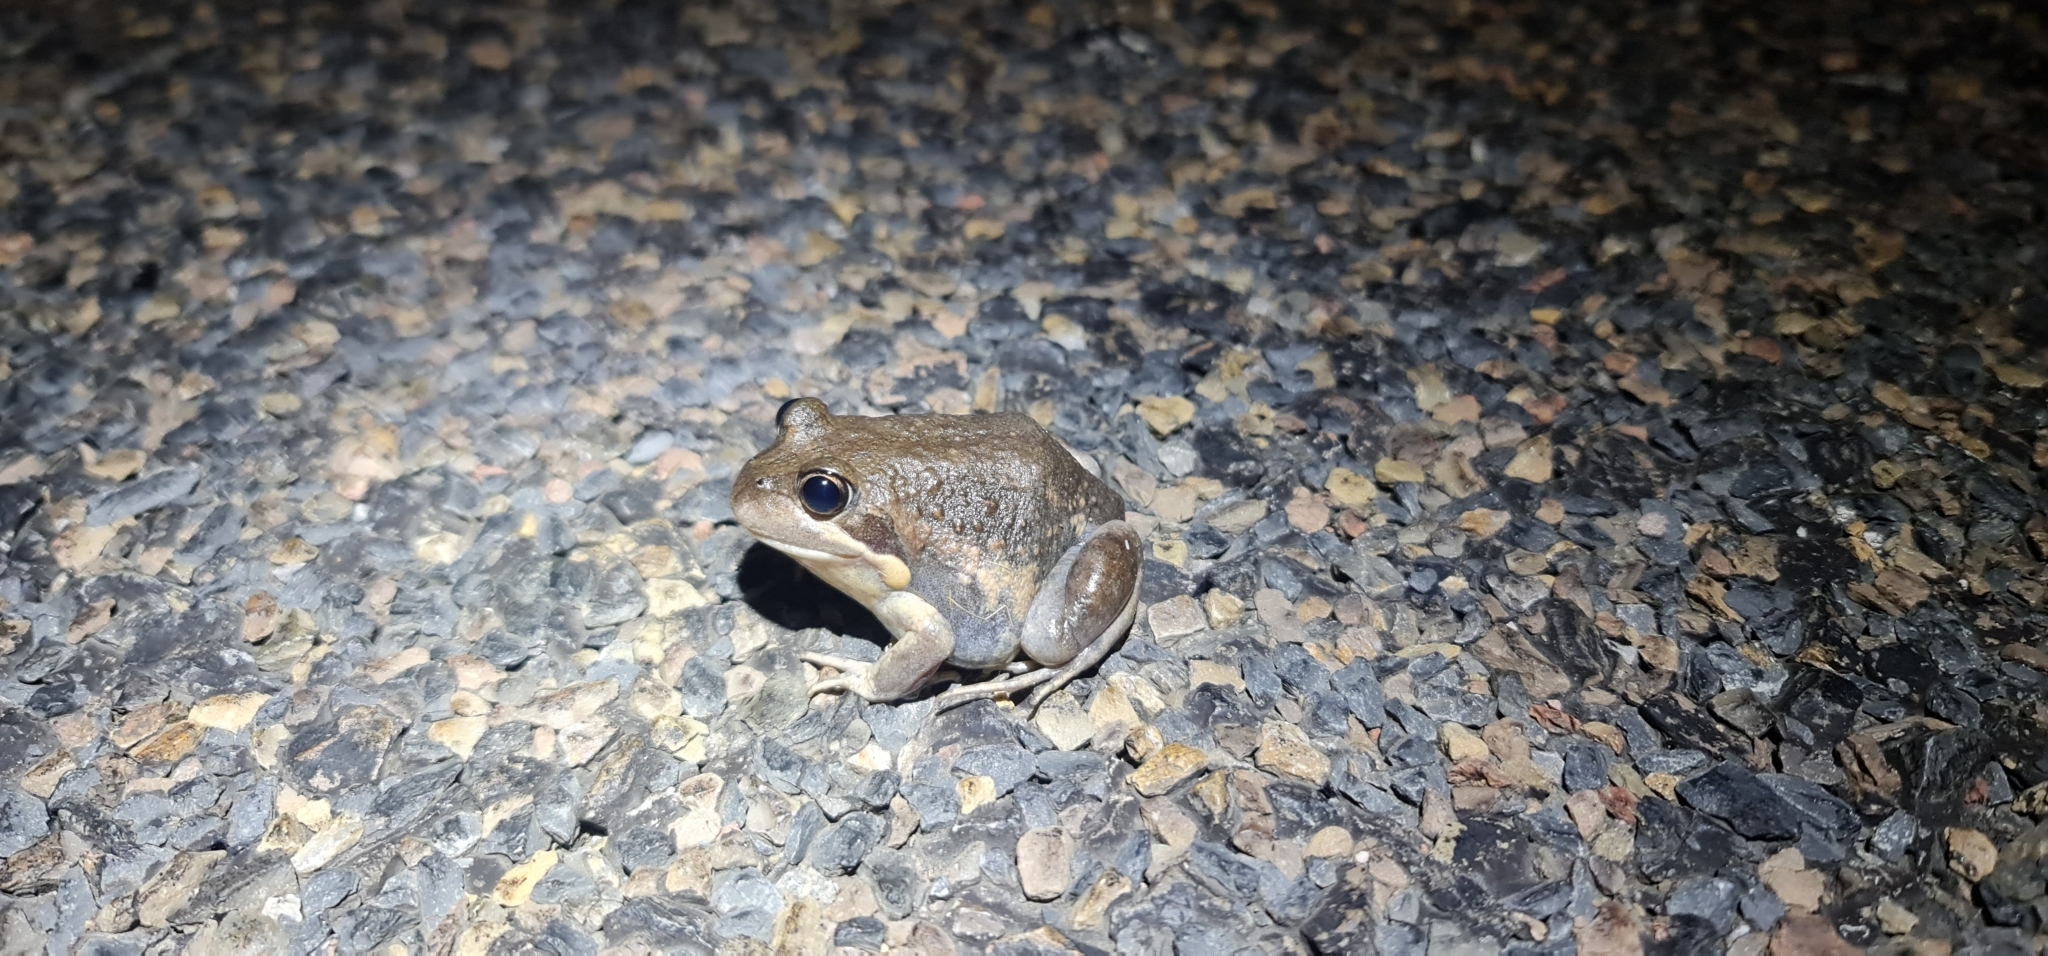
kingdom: Animalia
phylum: Chordata
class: Amphibia
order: Anura
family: Limnodynastidae
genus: Limnodynastes
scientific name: Limnodynastes dumerilii
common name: Banjo frog
